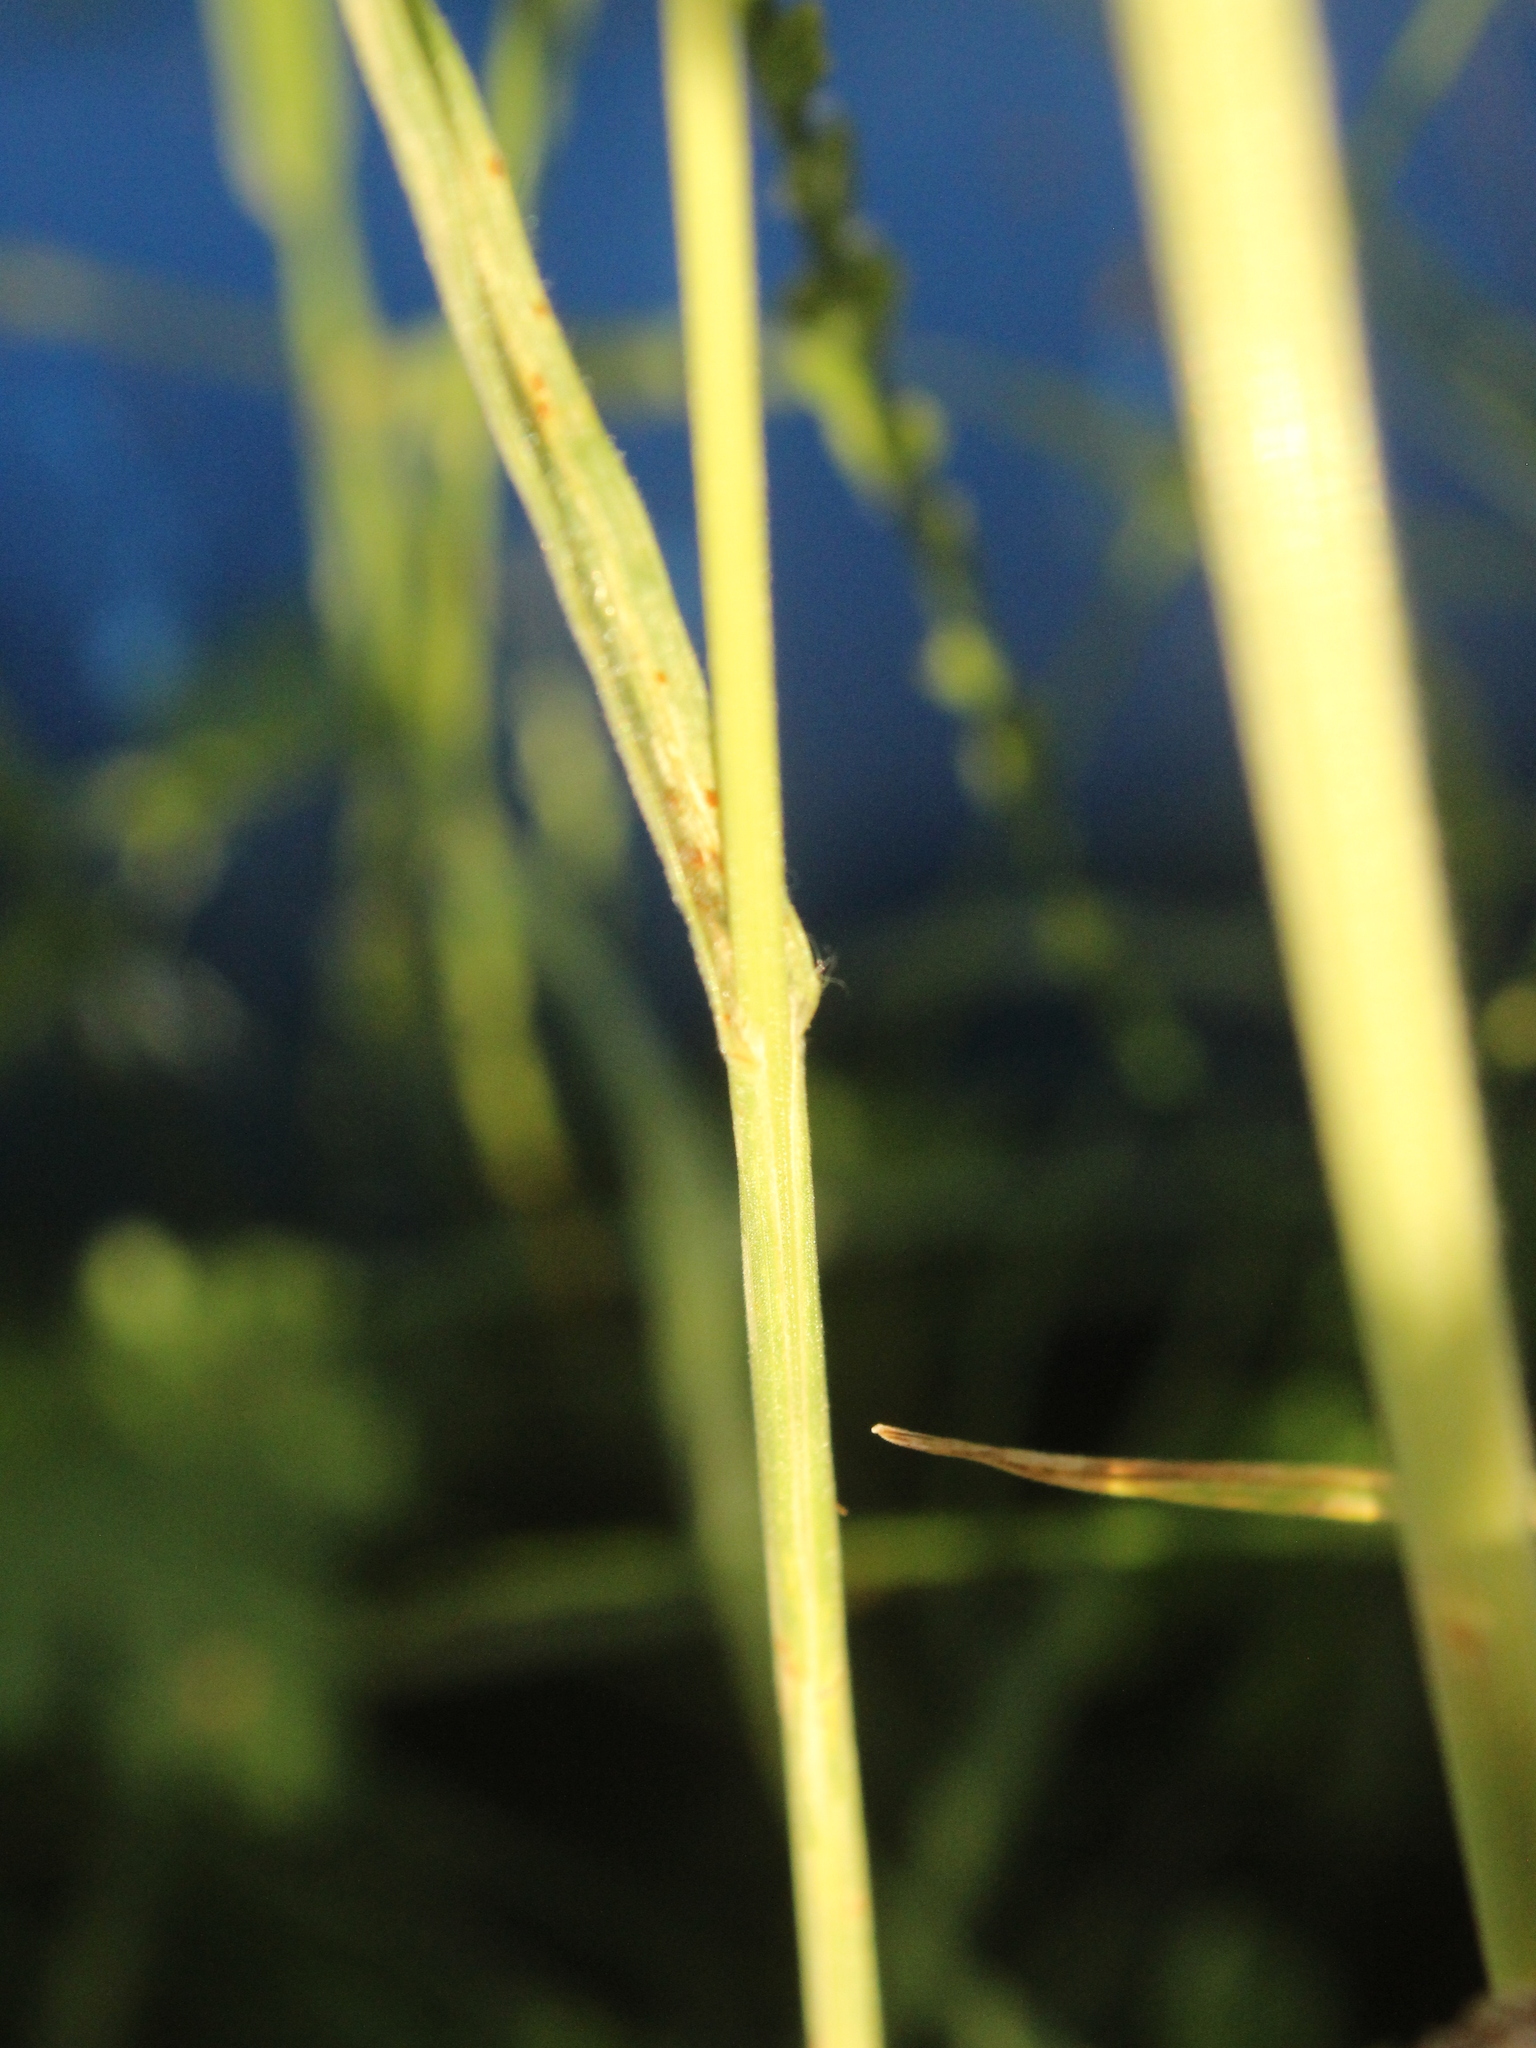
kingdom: Plantae
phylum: Tracheophyta
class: Liliopsida
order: Poales
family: Poaceae
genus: Bromus
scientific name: Bromus hordeaceus
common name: Soft brome
